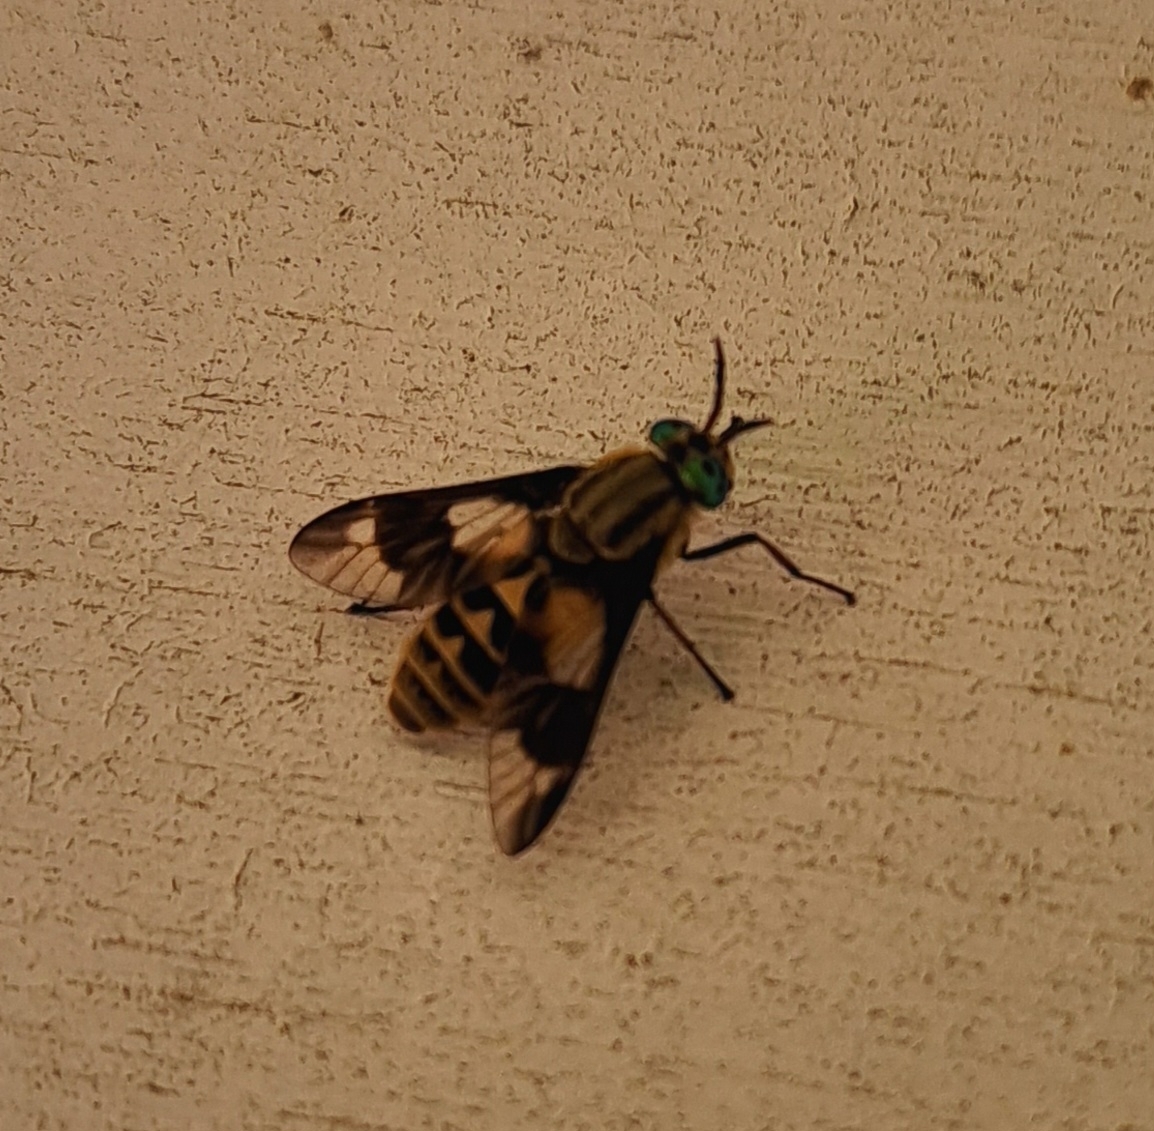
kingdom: Animalia
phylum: Arthropoda
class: Insecta
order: Diptera
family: Tabanidae
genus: Chrysops
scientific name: Chrysops relictus
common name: Twin-lobed deerfly
